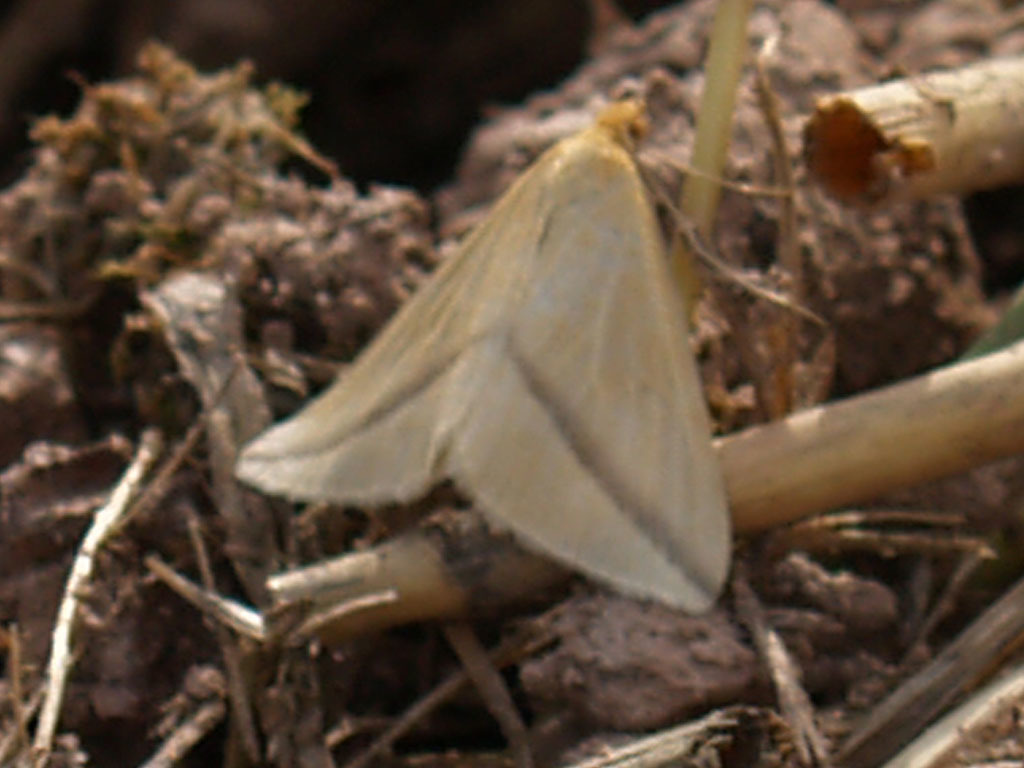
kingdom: Animalia
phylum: Arthropoda
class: Insecta
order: Lepidoptera
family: Geometridae
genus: Rhodometra
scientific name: Rhodometra sacraria
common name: Vestal
